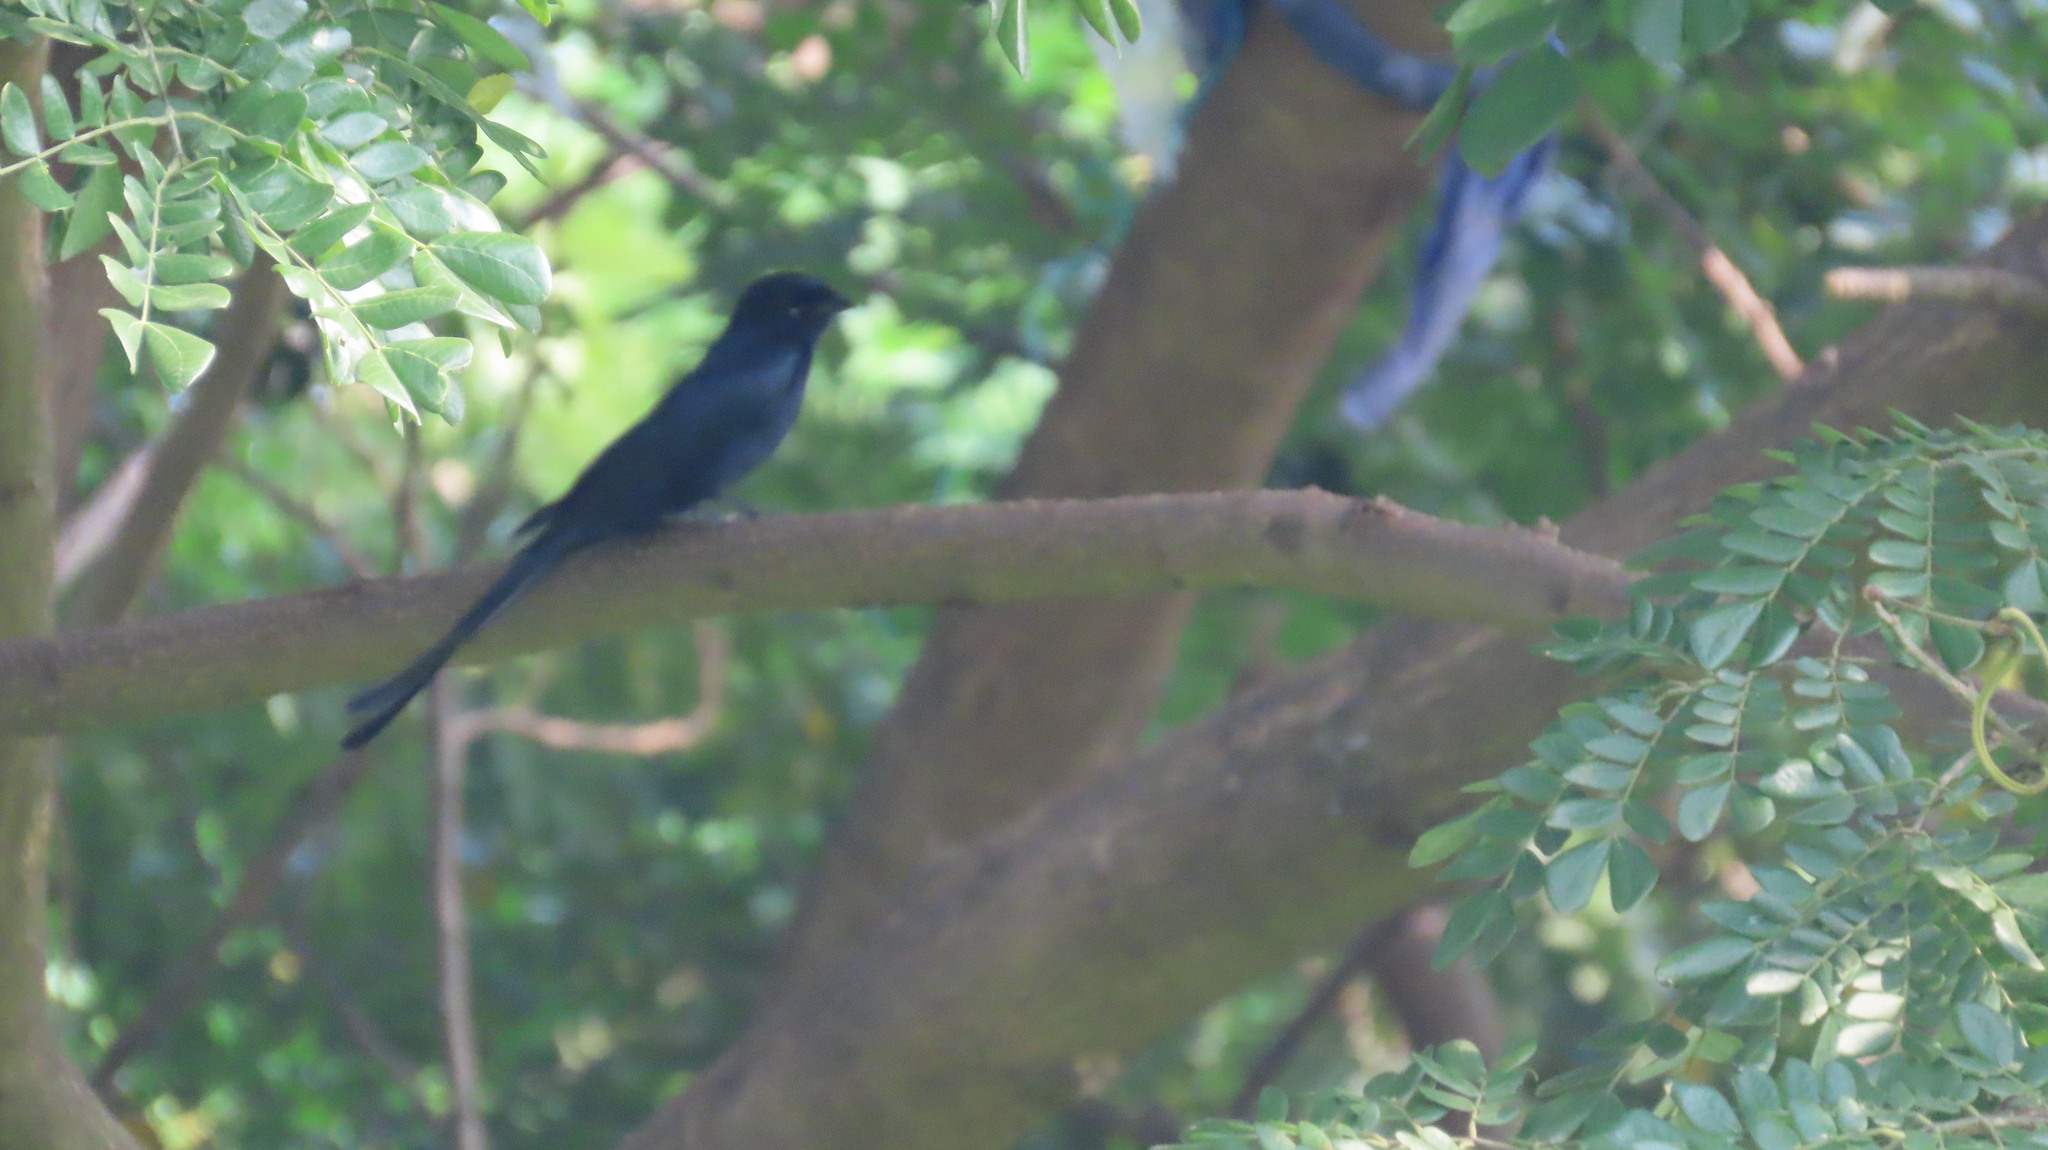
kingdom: Animalia
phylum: Chordata
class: Aves
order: Passeriformes
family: Dicruridae
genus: Dicrurus
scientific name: Dicrurus macrocercus
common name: Black drongo
